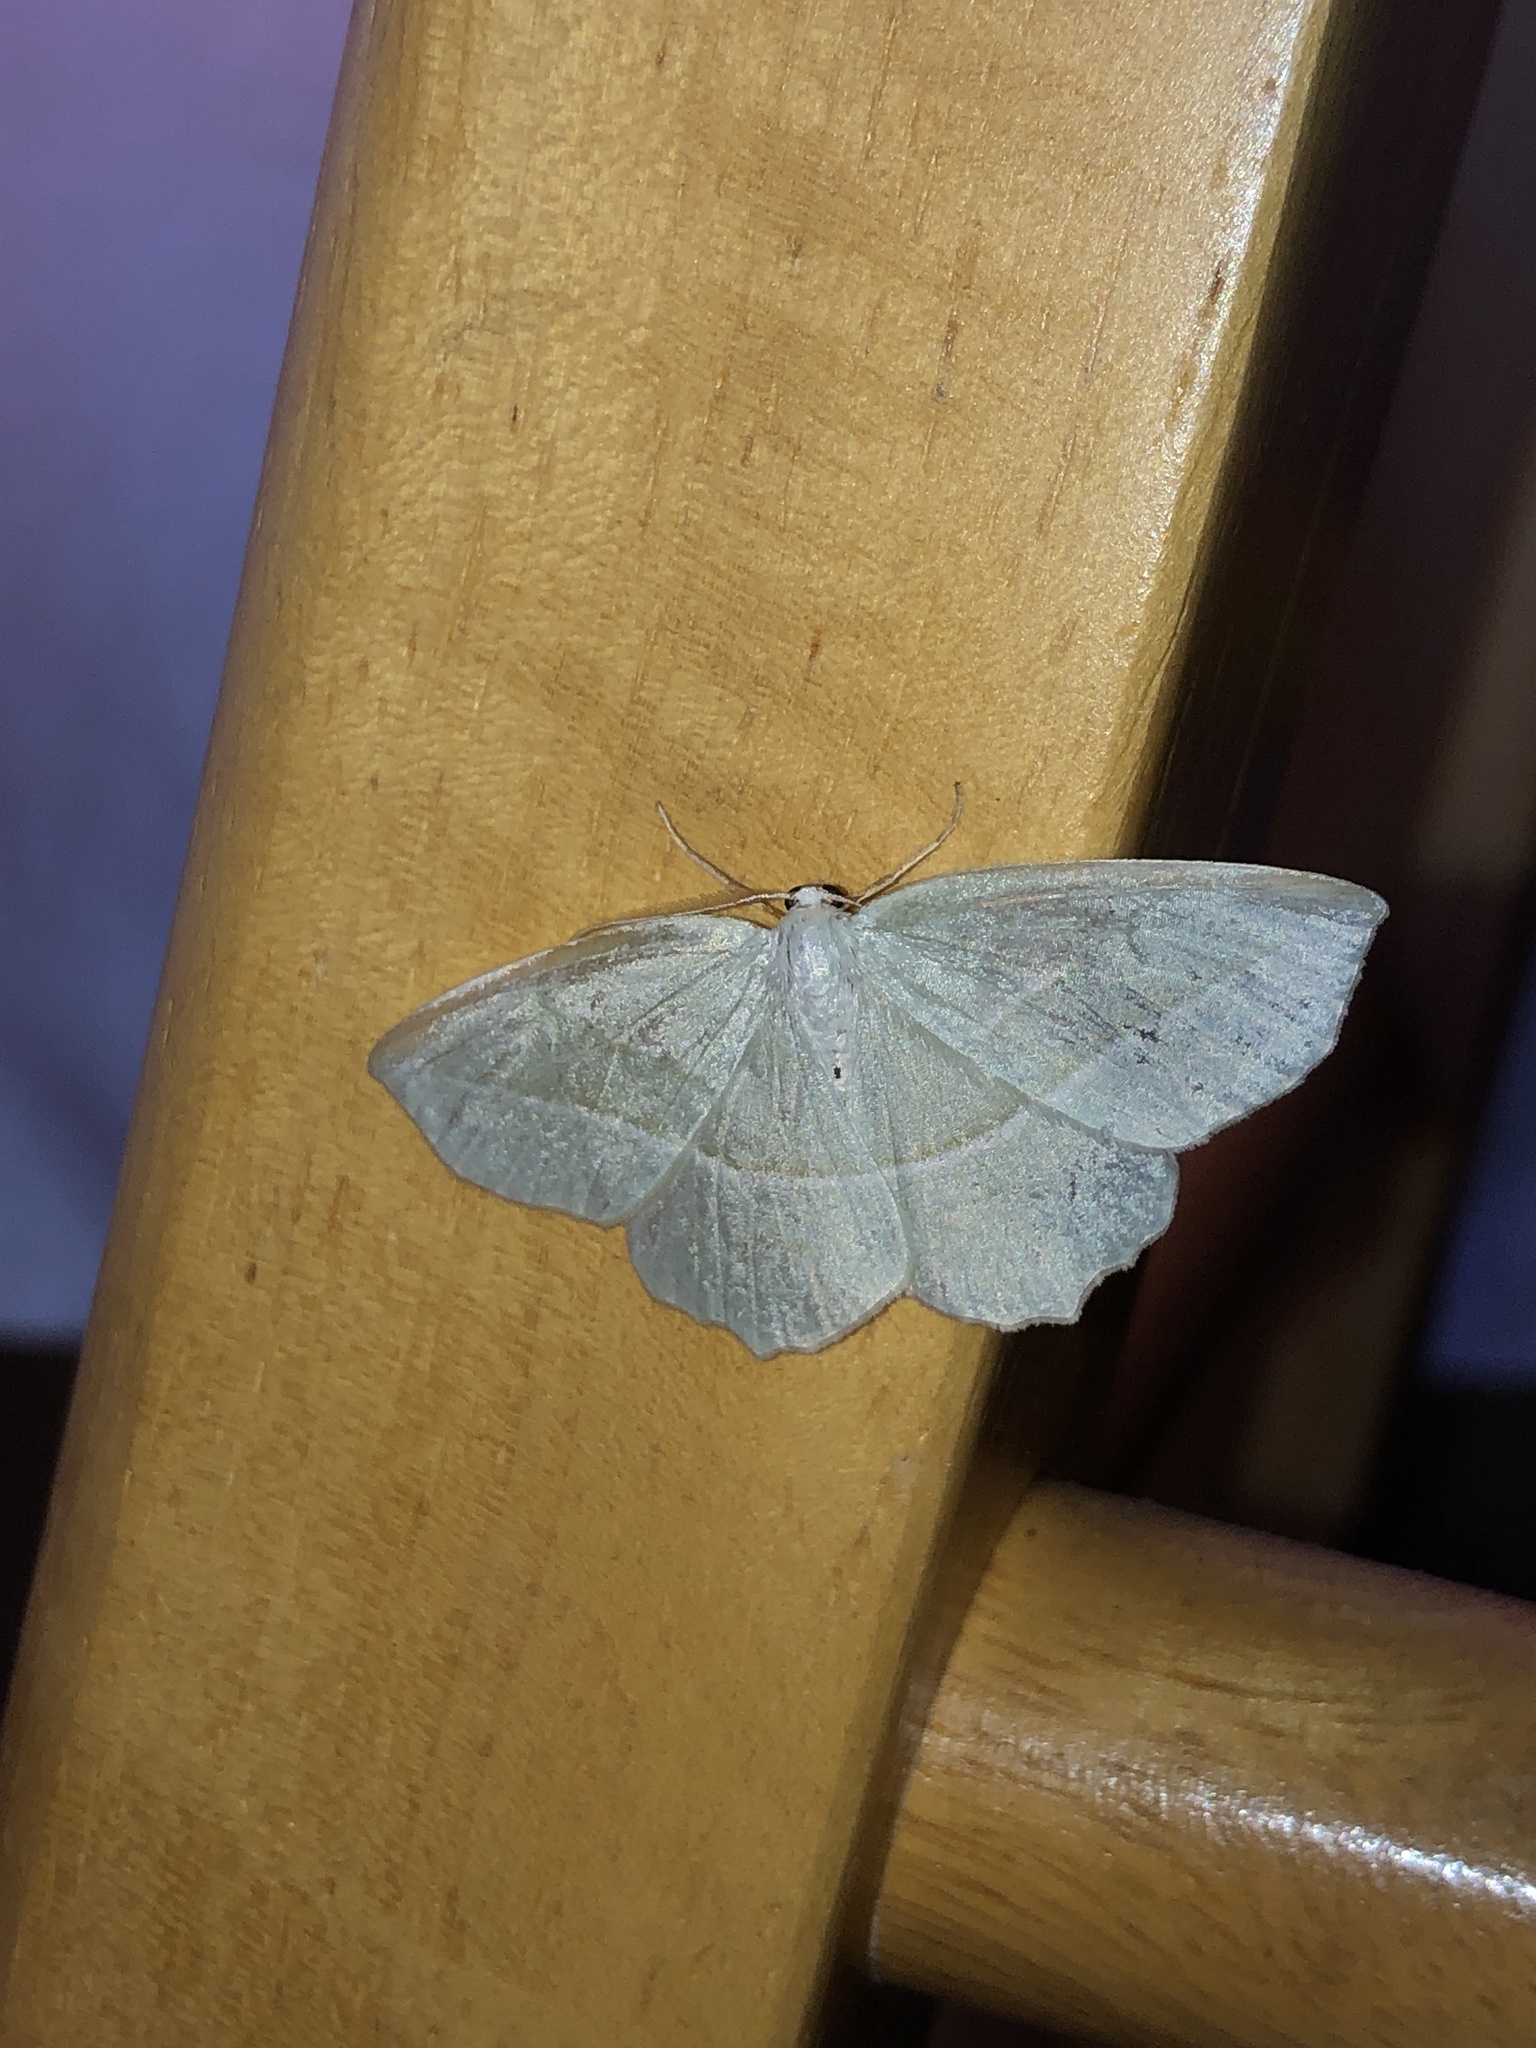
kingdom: Animalia
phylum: Arthropoda
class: Insecta
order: Lepidoptera
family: Geometridae
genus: Campaea
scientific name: Campaea perlata
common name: Fringed looper
